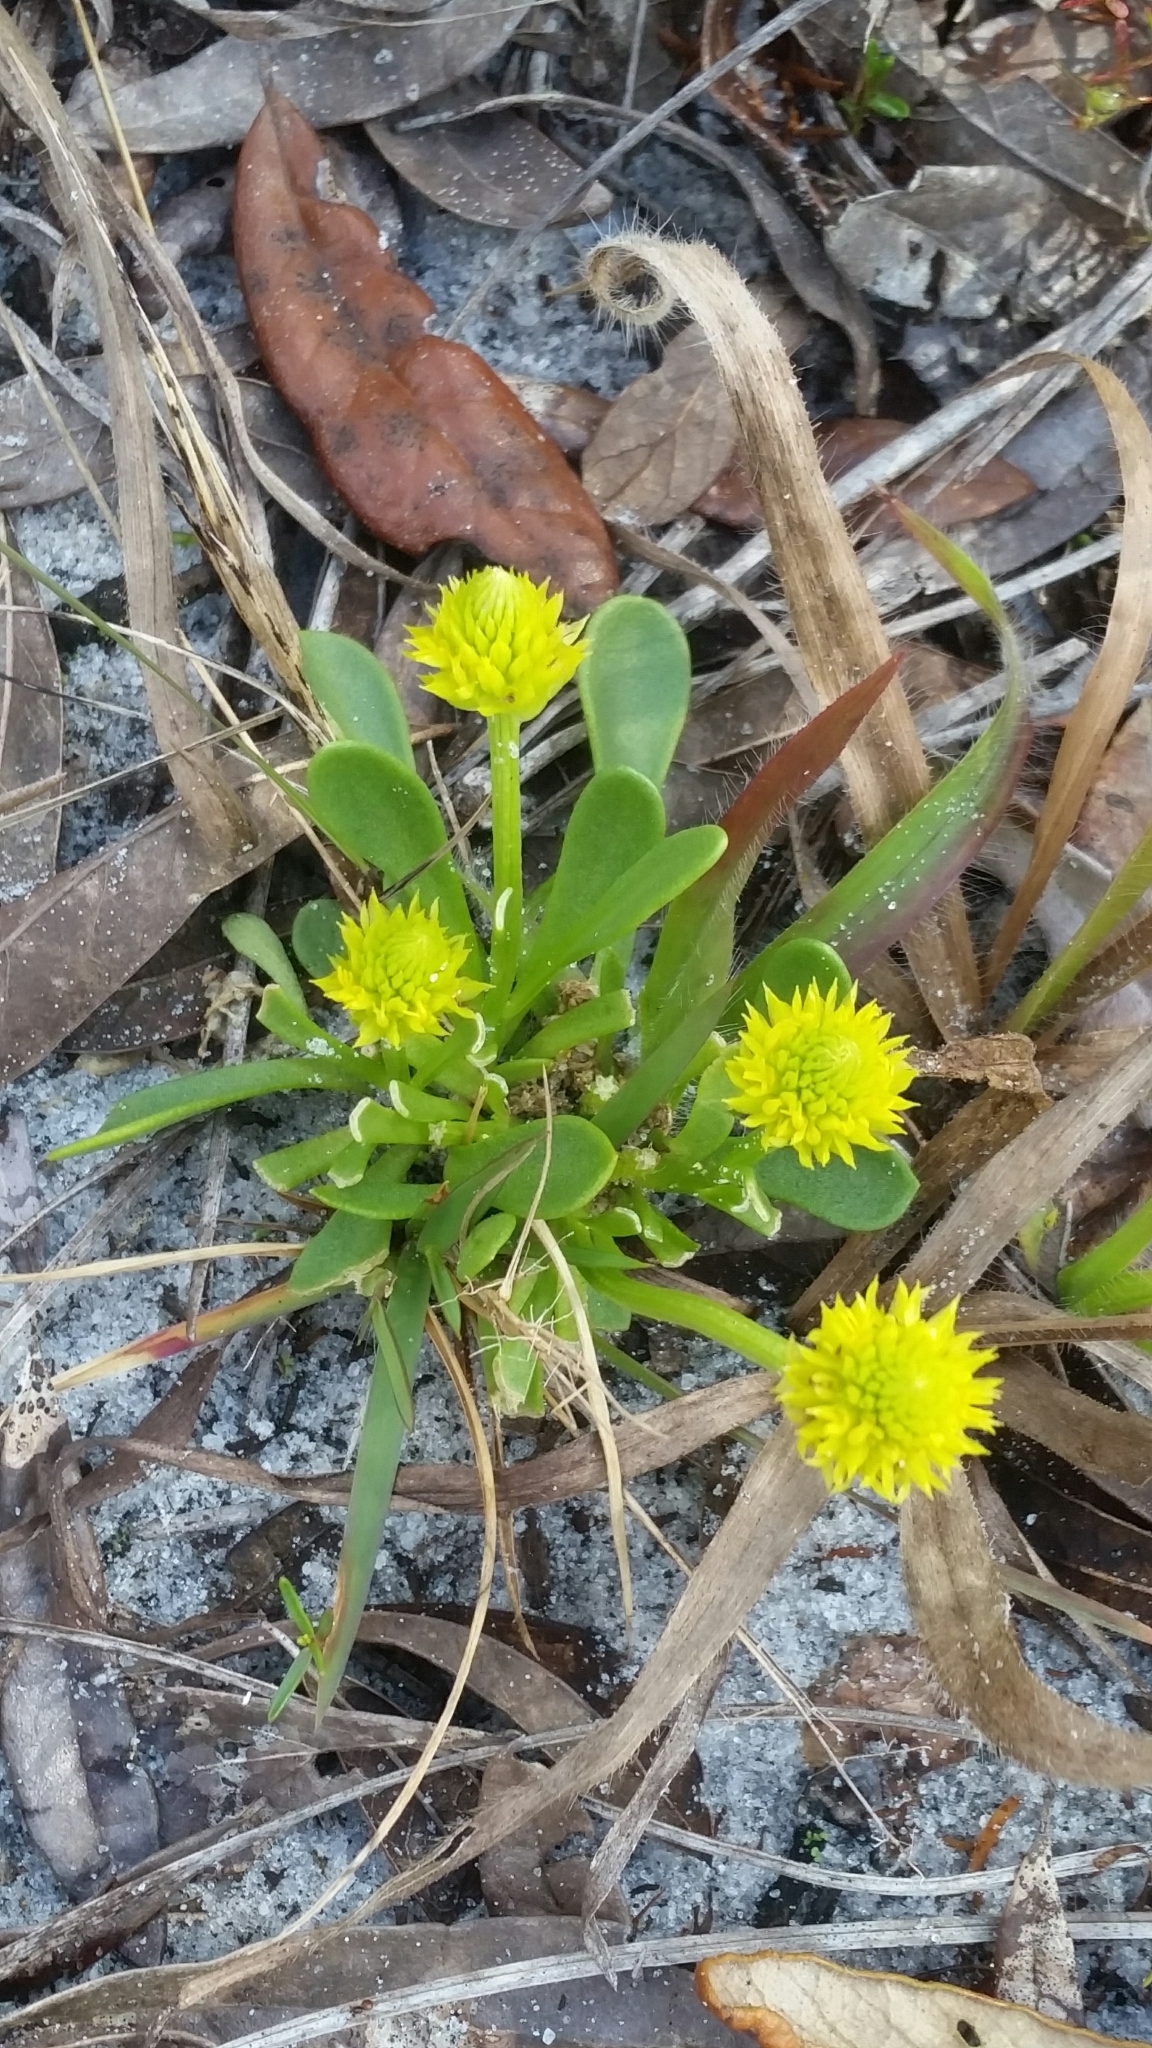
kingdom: Plantae
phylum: Tracheophyta
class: Magnoliopsida
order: Fabales
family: Polygalaceae
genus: Polygala
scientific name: Polygala nana
